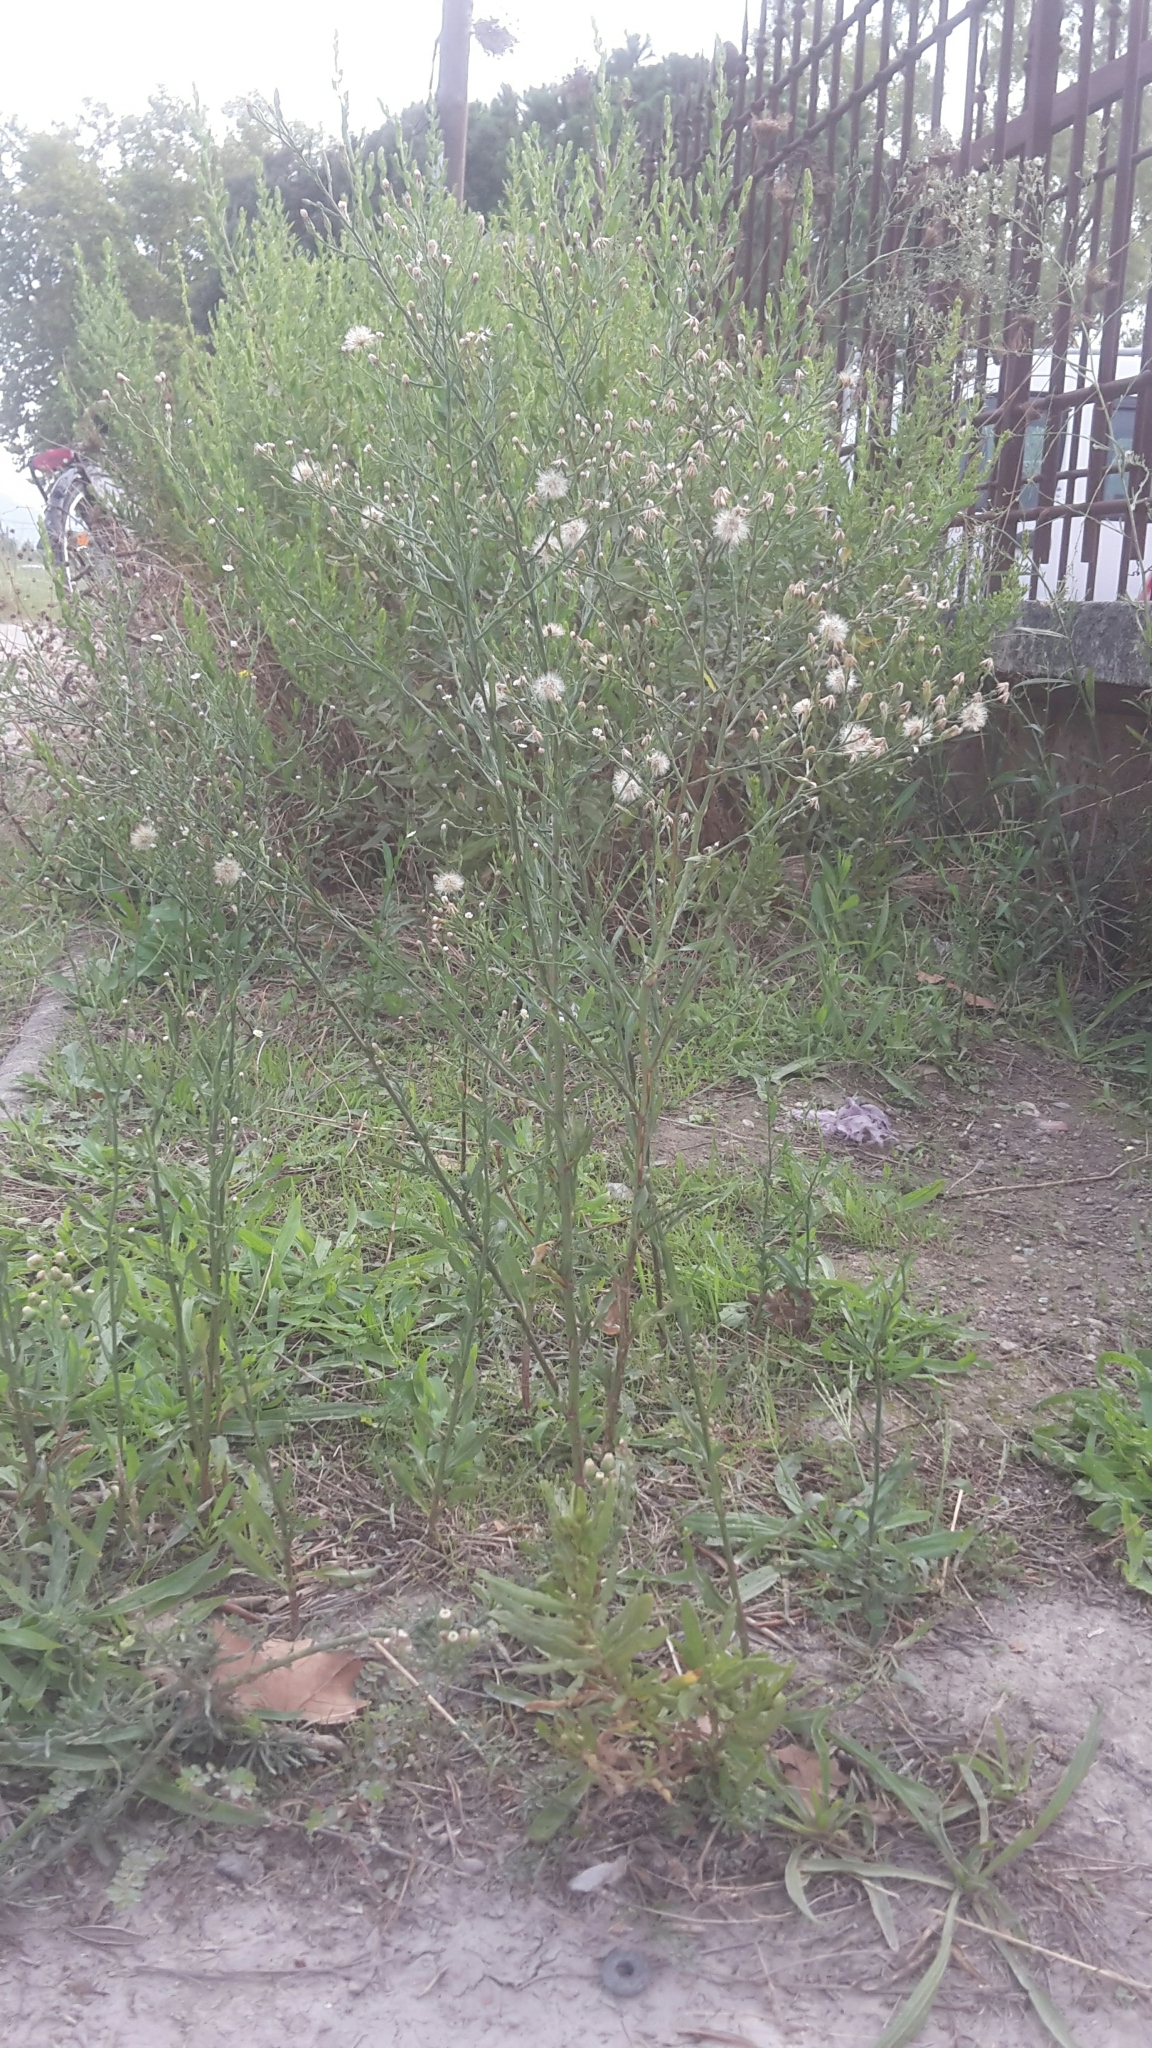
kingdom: Plantae
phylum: Tracheophyta
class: Magnoliopsida
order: Asterales
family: Asteraceae
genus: Symphyotrichum
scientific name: Symphyotrichum squamatum
